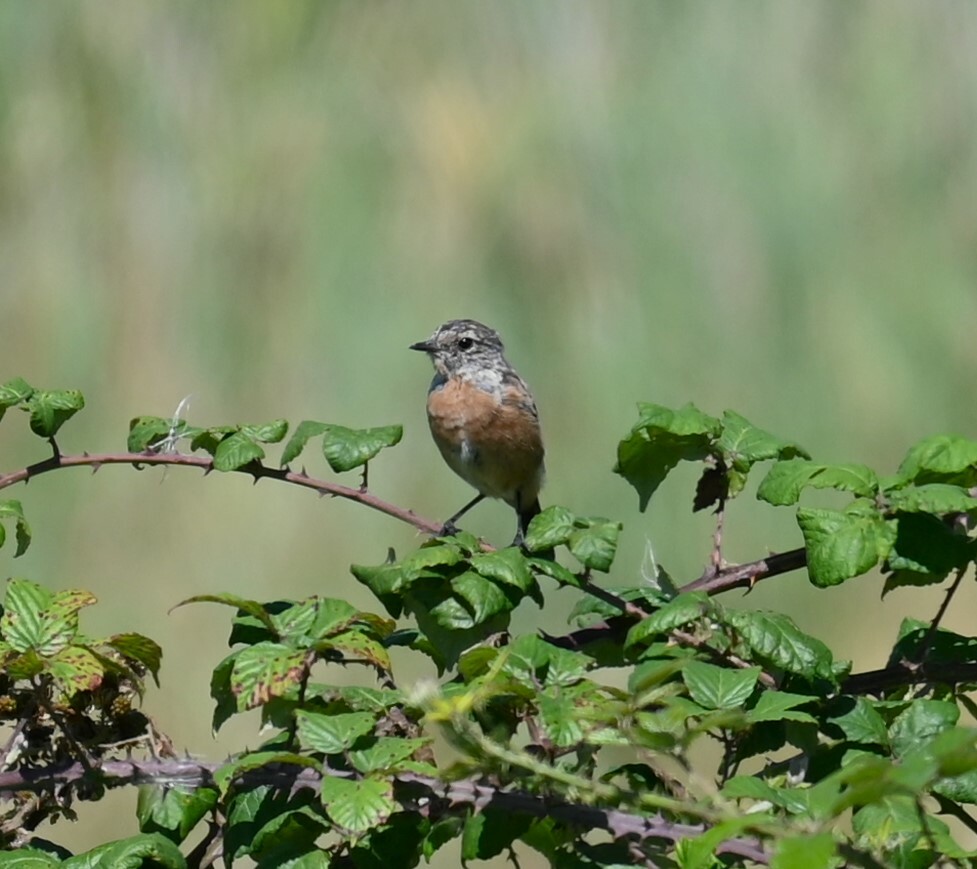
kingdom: Animalia
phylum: Chordata
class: Aves
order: Passeriformes
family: Muscicapidae
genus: Saxicola
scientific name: Saxicola rubicola
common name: European stonechat
